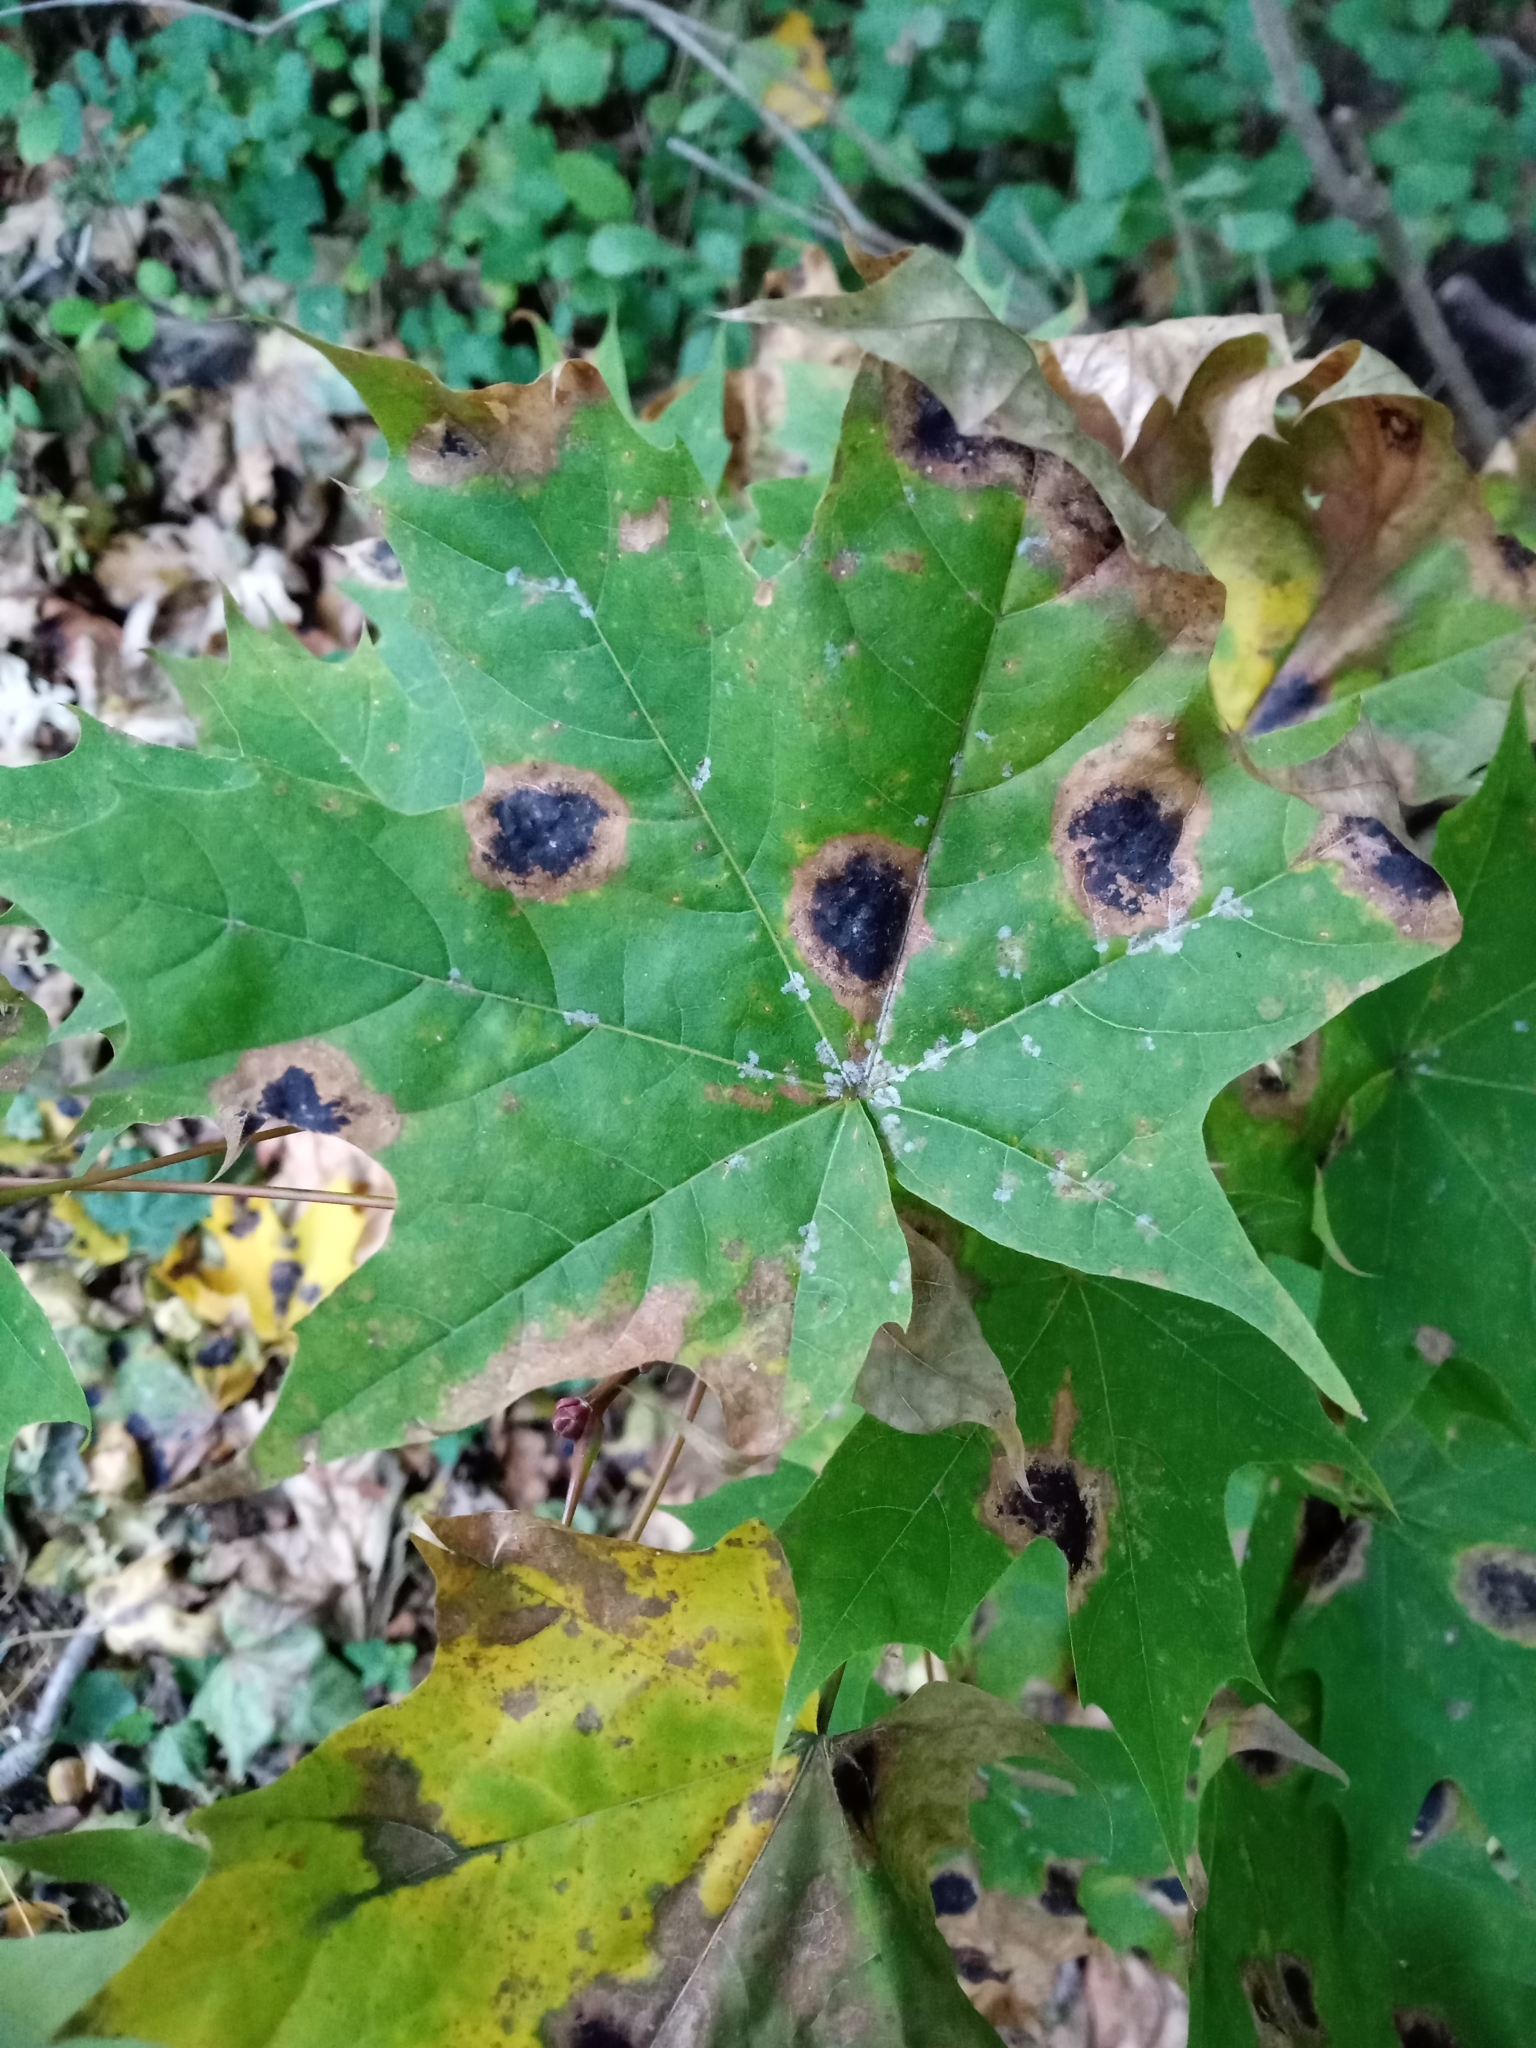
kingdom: Fungi
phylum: Ascomycota
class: Leotiomycetes
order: Rhytismatales
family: Rhytismataceae
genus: Rhytisma
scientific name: Rhytisma acerinum
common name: European tar spot
